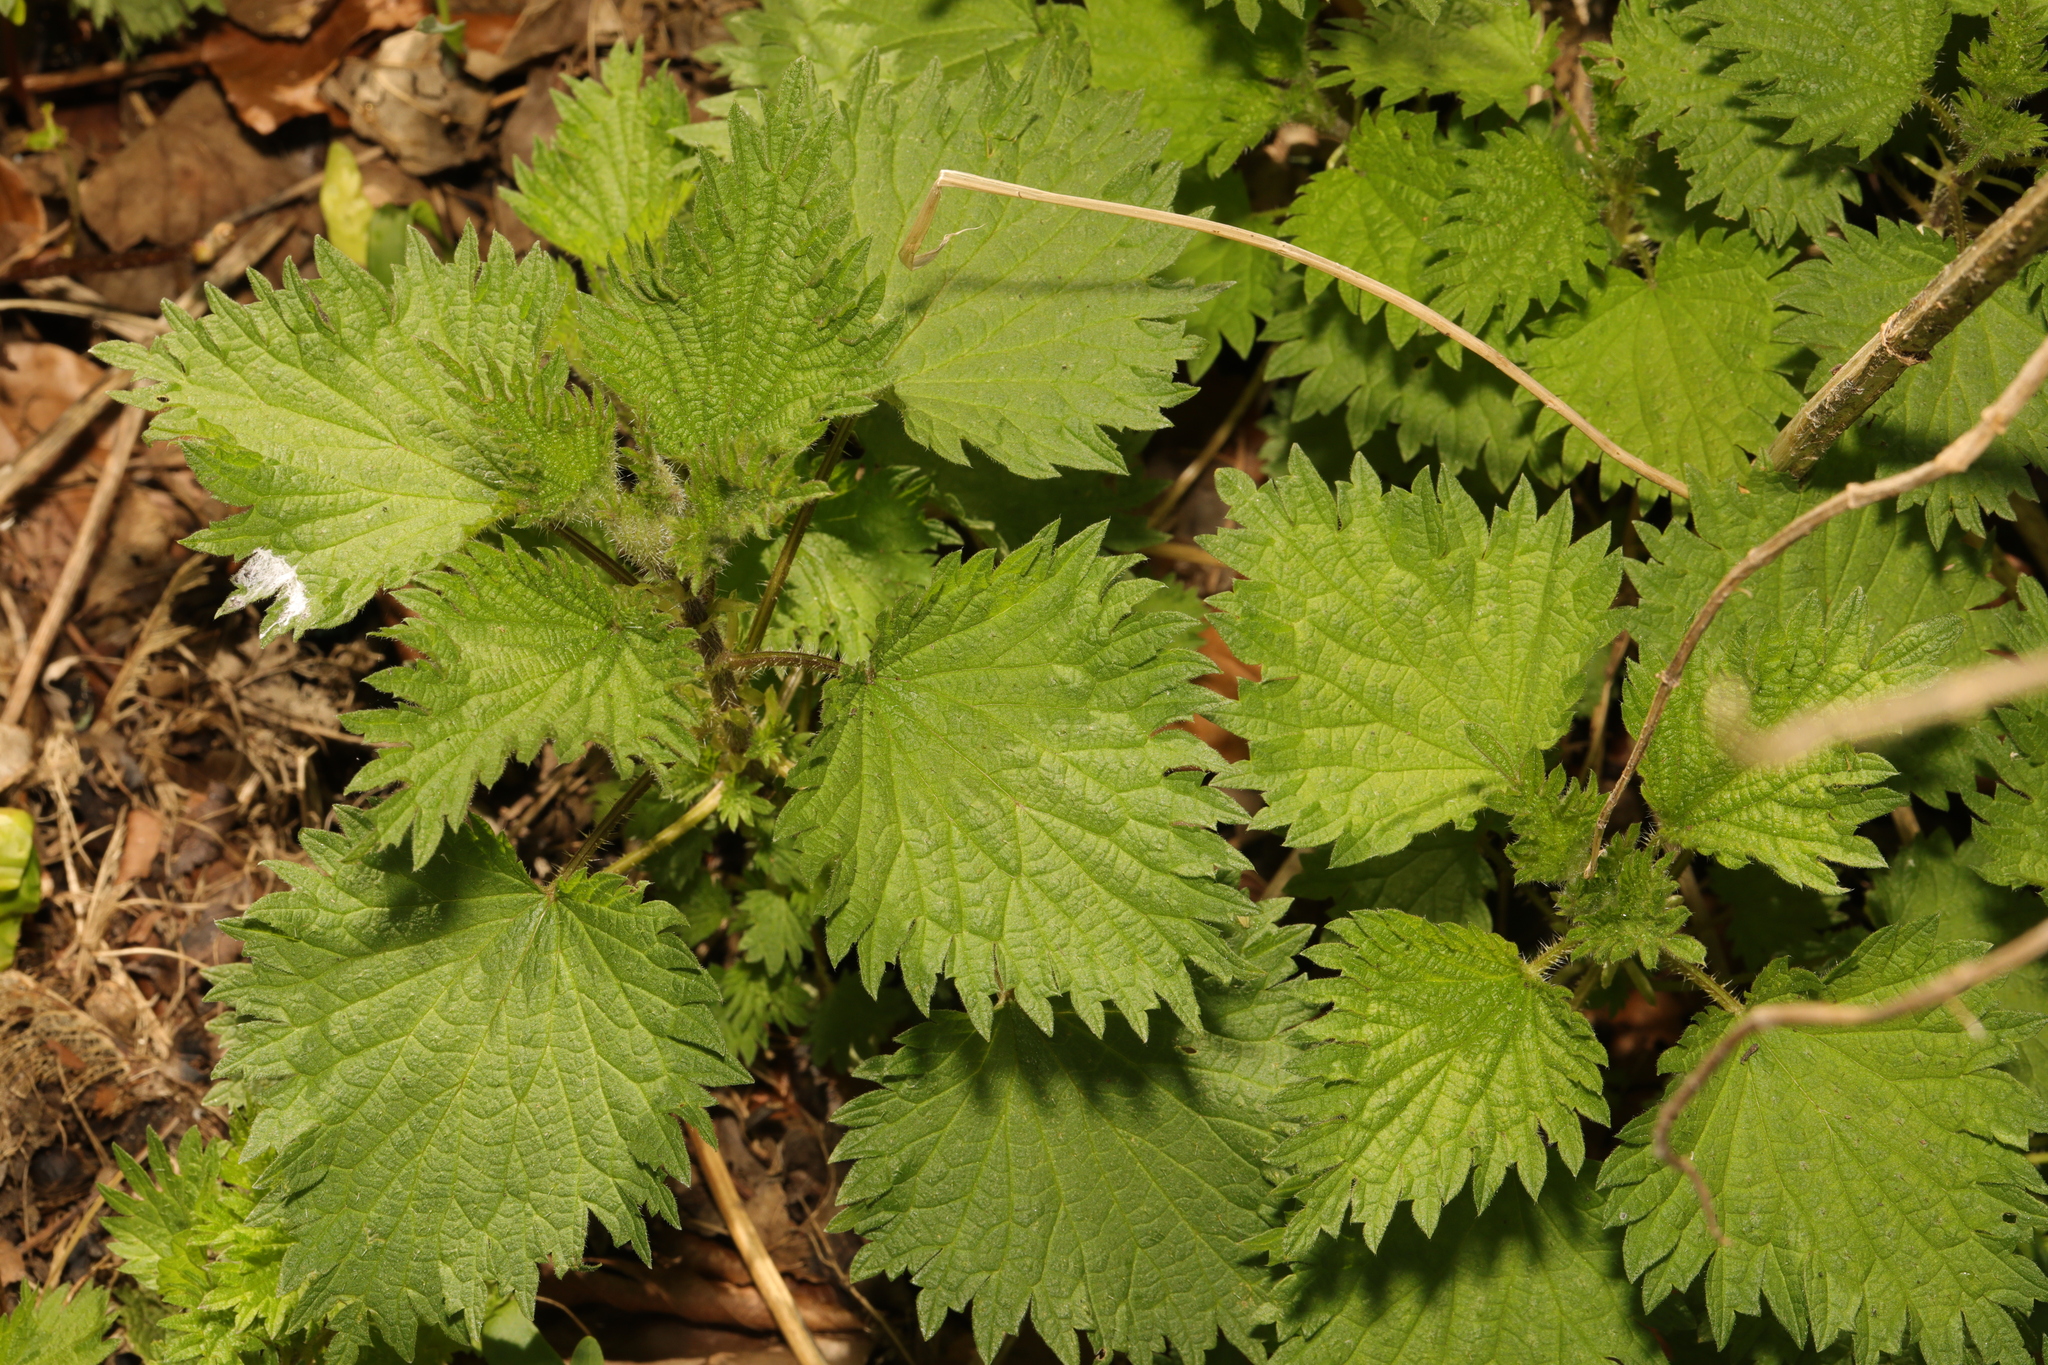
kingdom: Plantae
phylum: Tracheophyta
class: Magnoliopsida
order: Rosales
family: Urticaceae
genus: Urtica
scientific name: Urtica dioica
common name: Common nettle
